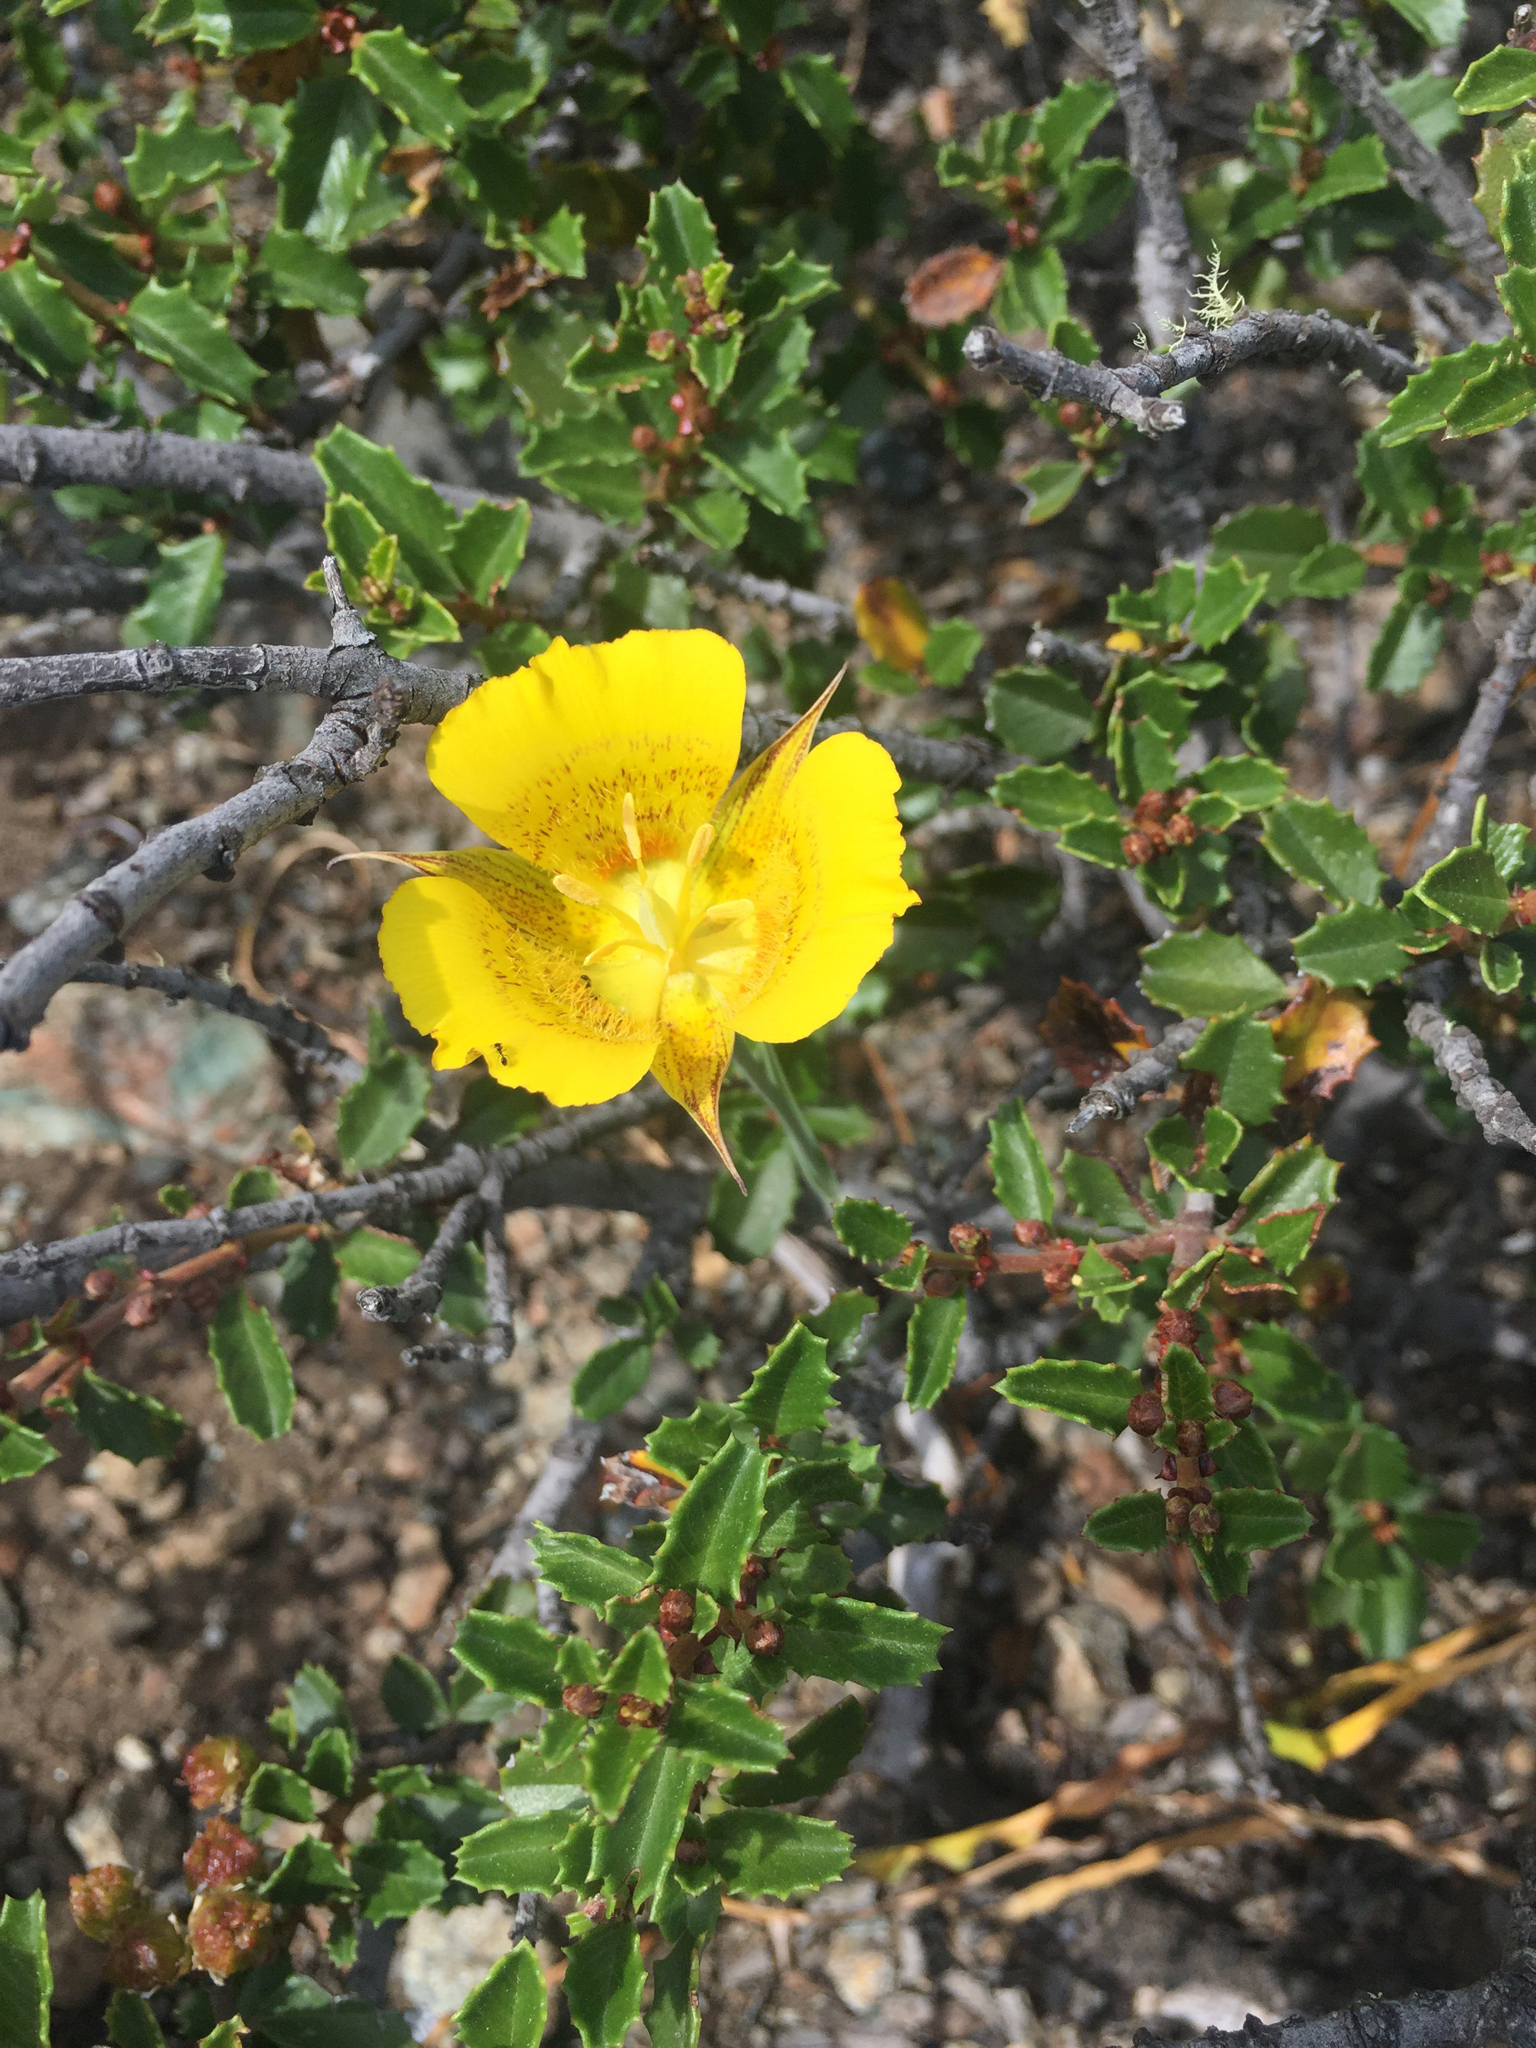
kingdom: Plantae
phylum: Tracheophyta
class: Liliopsida
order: Liliales
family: Liliaceae
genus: Calochortus
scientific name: Calochortus luteus
